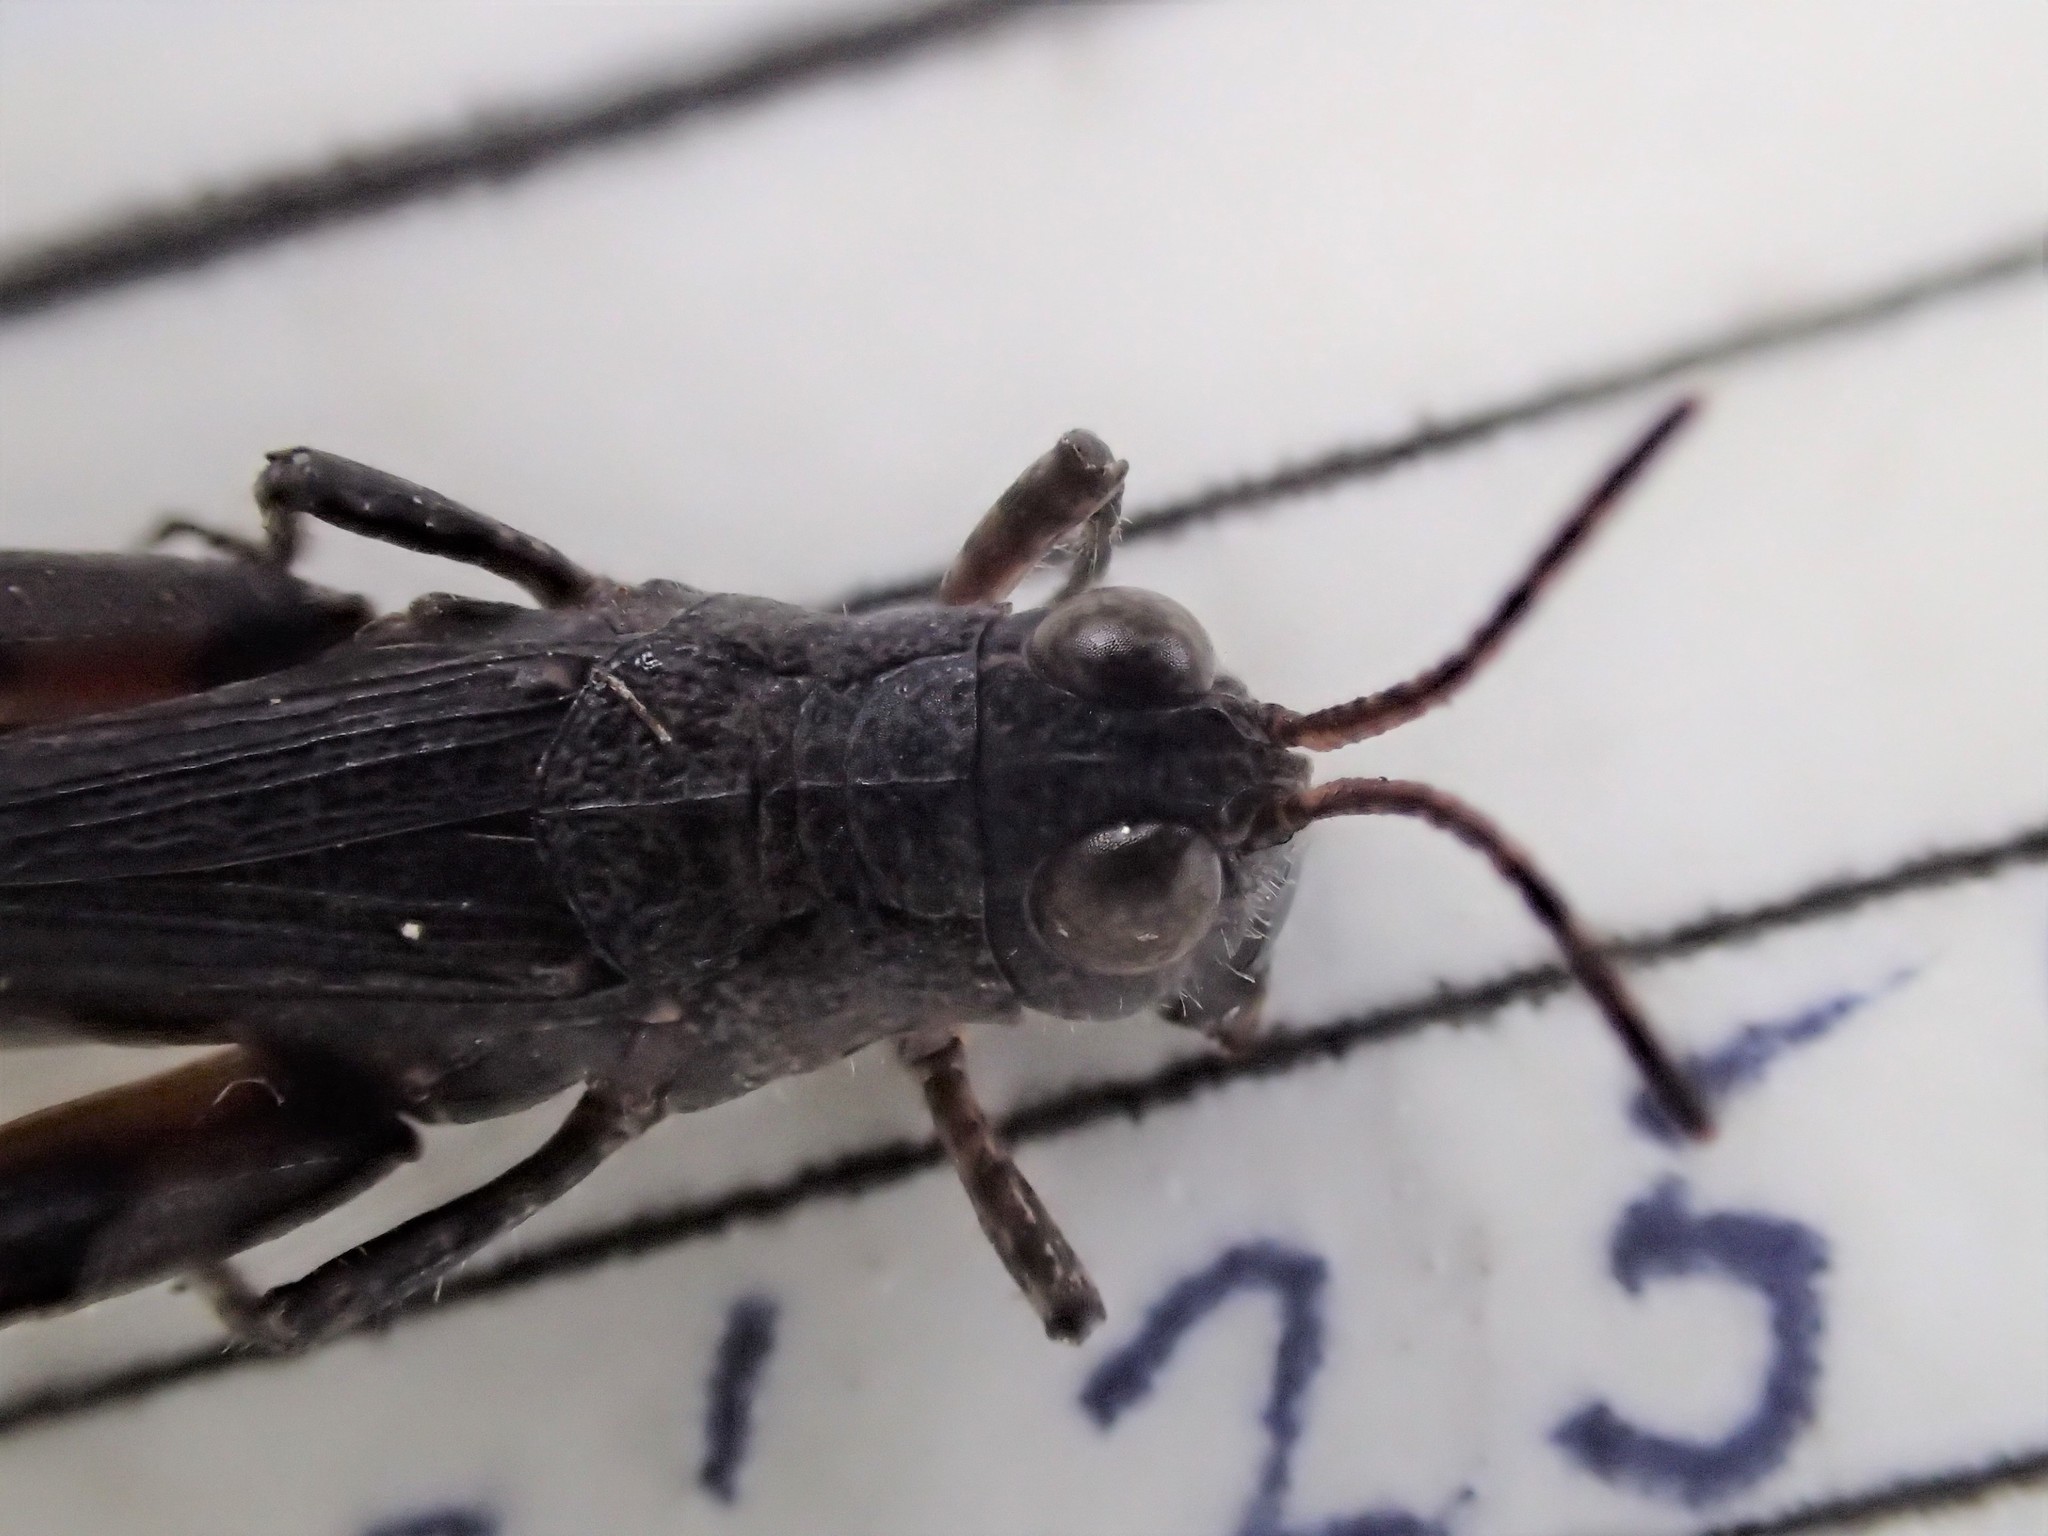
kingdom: Animalia
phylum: Arthropoda
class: Insecta
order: Orthoptera
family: Acrididae
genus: Minyacris
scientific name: Minyacris nana
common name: Tiny grasshopper
